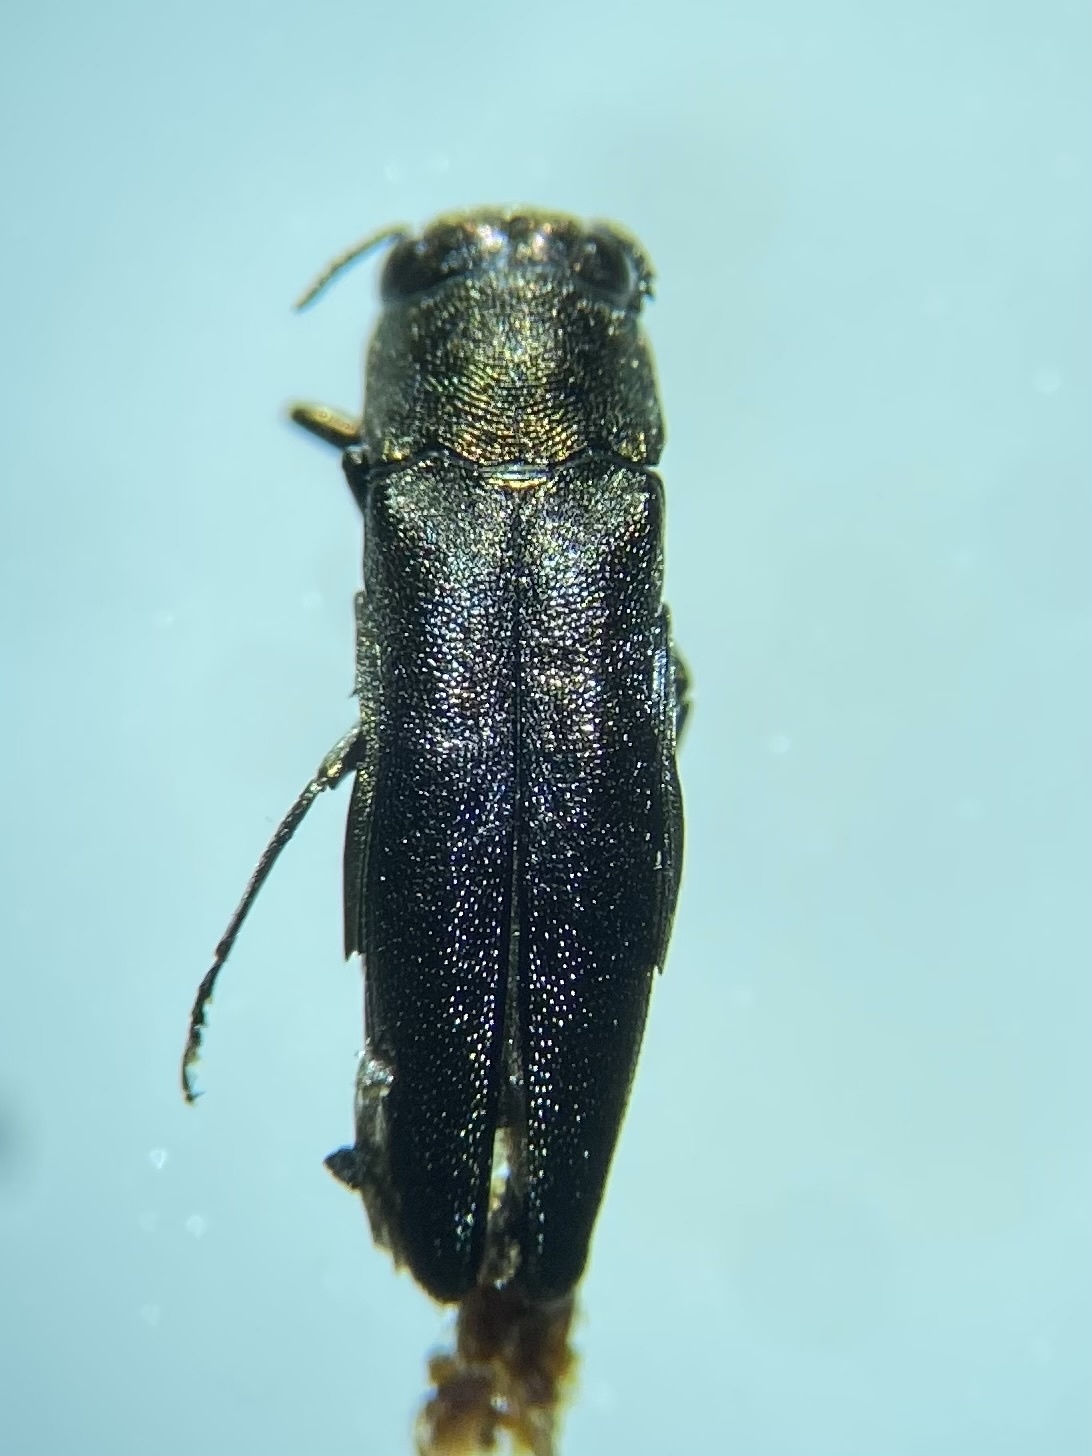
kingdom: Animalia
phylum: Arthropoda
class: Insecta
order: Coleoptera
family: Buprestidae
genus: Agrilus
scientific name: Agrilus subrobustus
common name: Metallic wood-boring beetle
